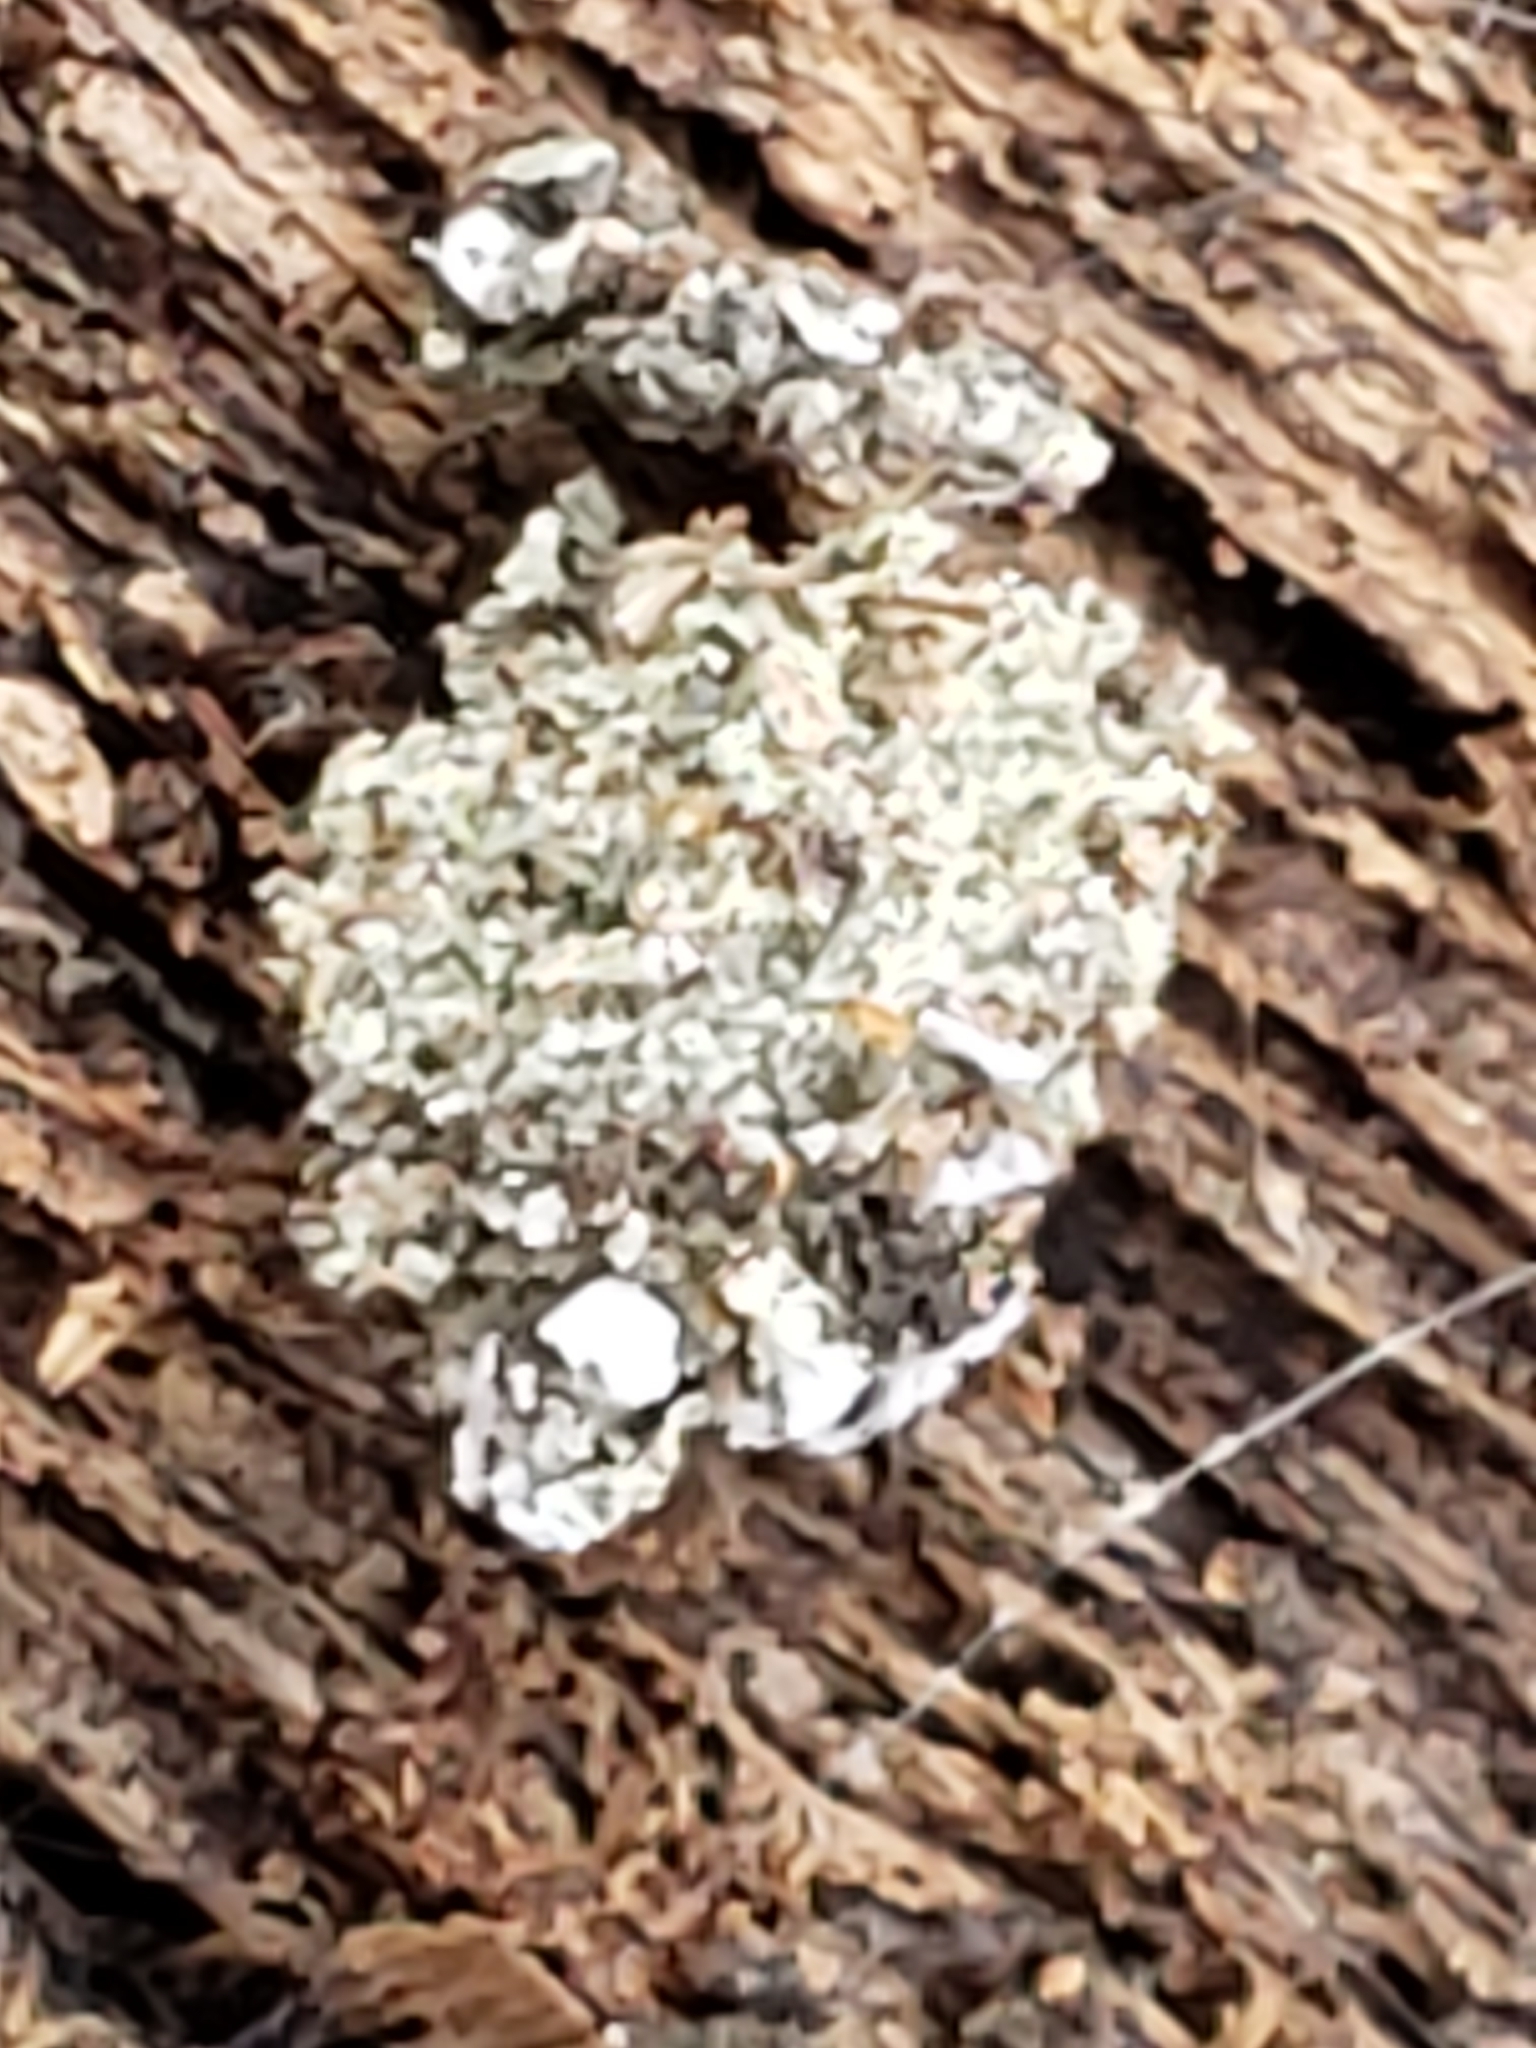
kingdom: Animalia
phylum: Arthropoda
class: Insecta
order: Neuroptera
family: Chrysopidae
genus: Leucochrysa
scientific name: Leucochrysa pavida
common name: Lichen-carrying green lacewing
